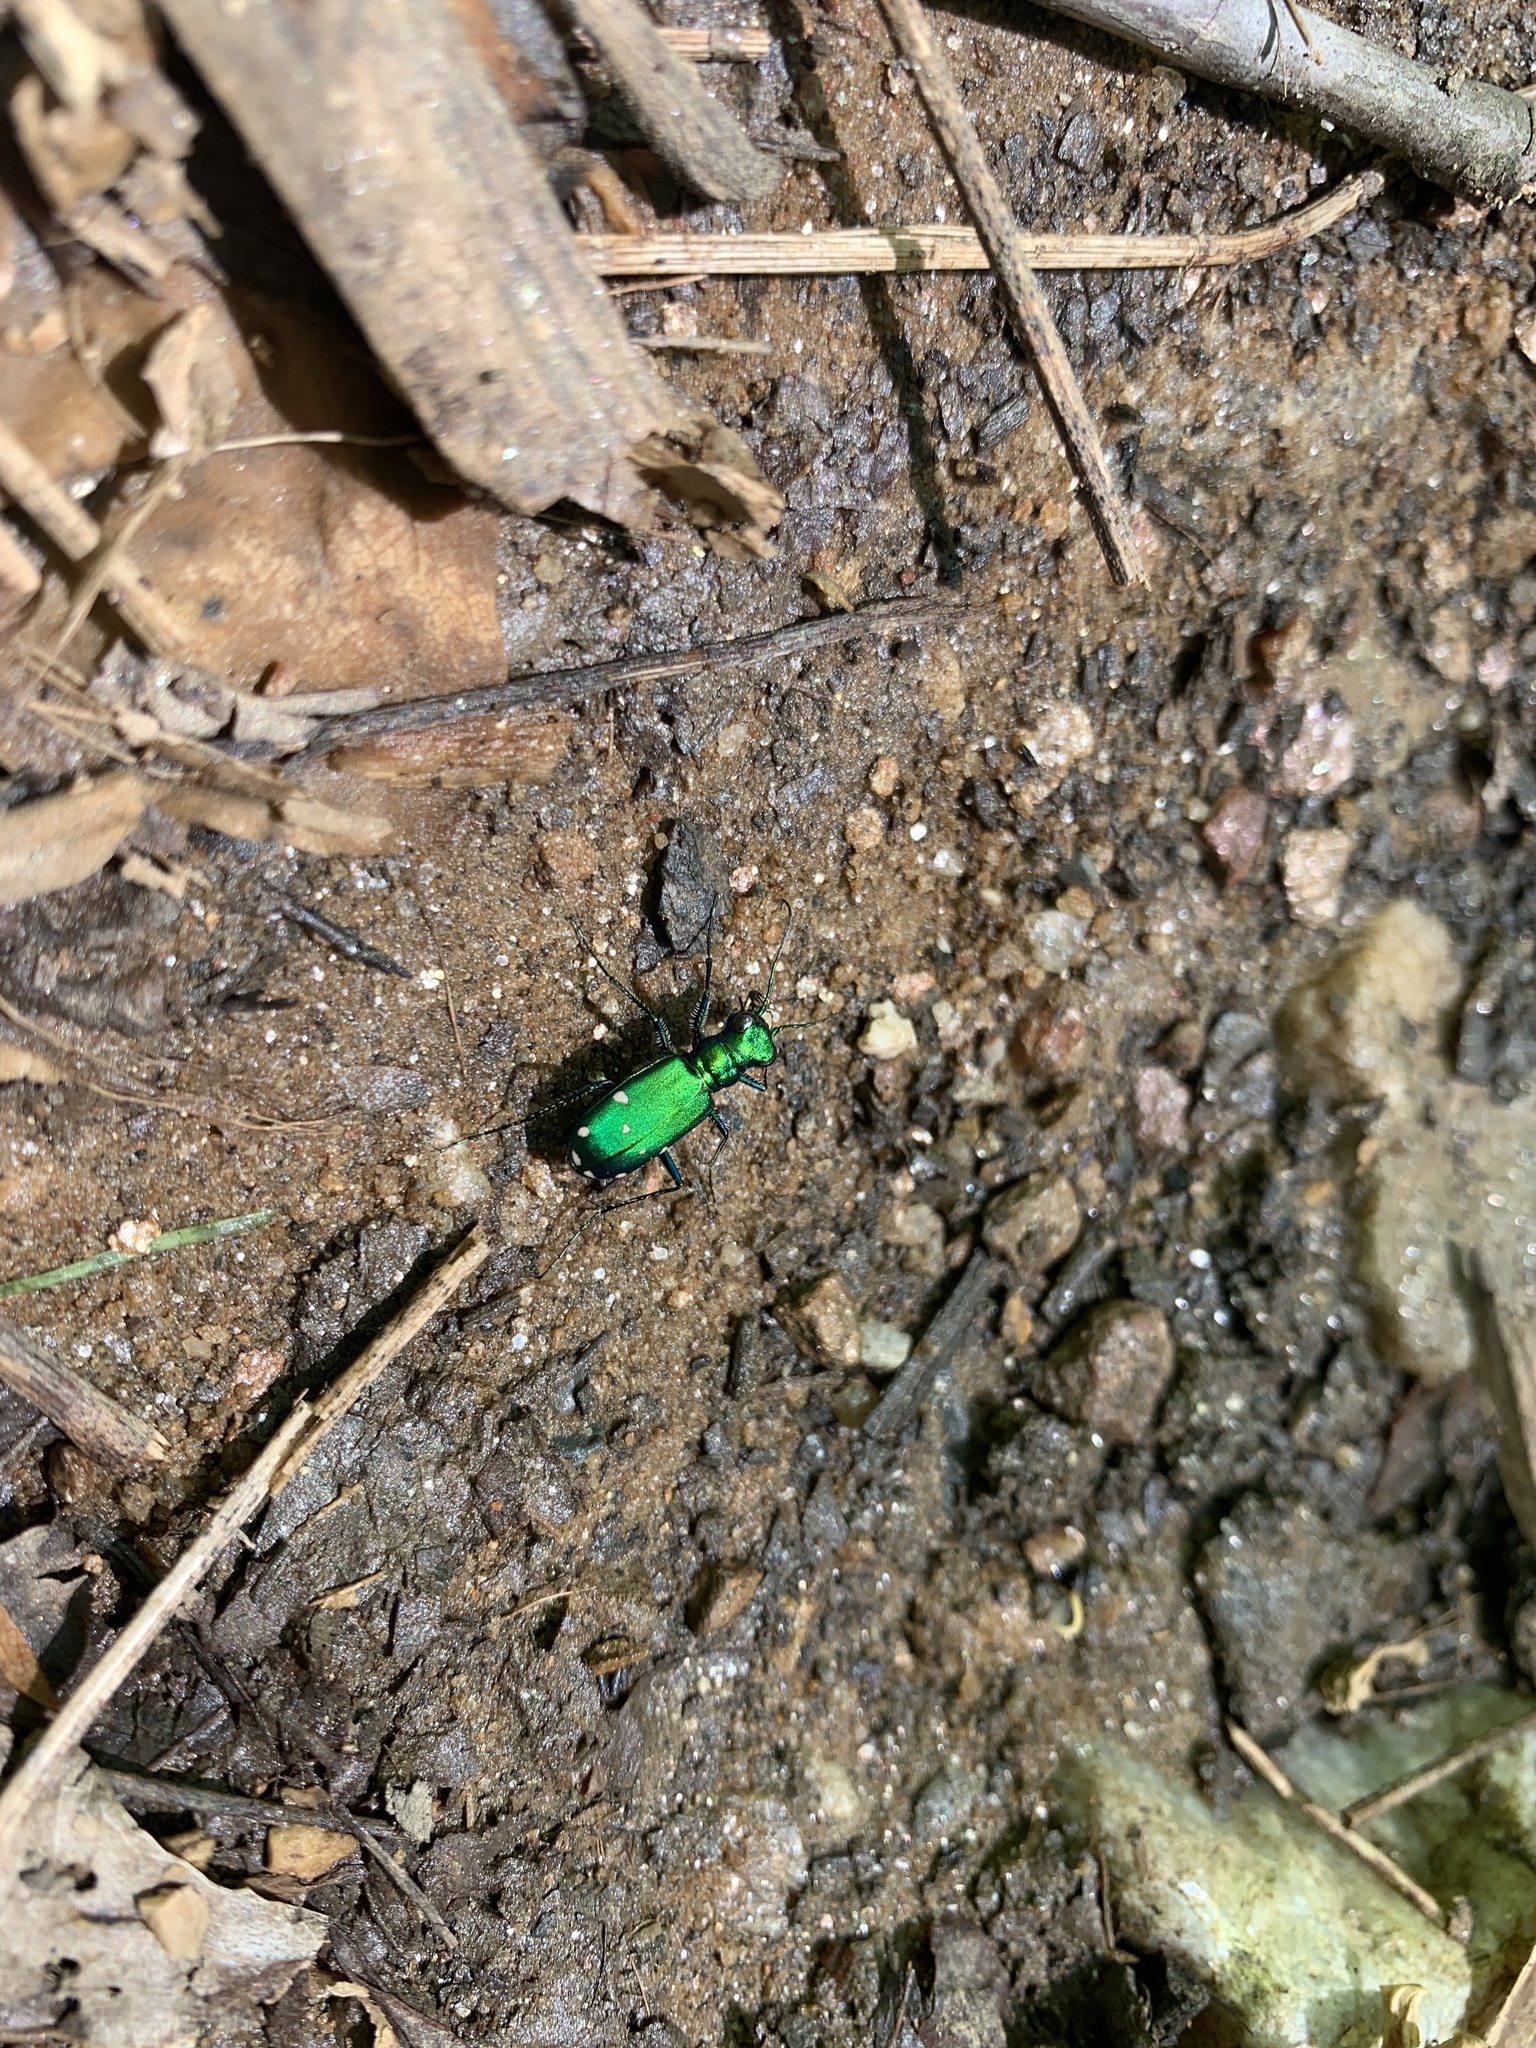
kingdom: Animalia
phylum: Arthropoda
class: Insecta
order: Coleoptera
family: Carabidae
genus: Cicindela
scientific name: Cicindela sexguttata
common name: Six-spotted tiger beetle
